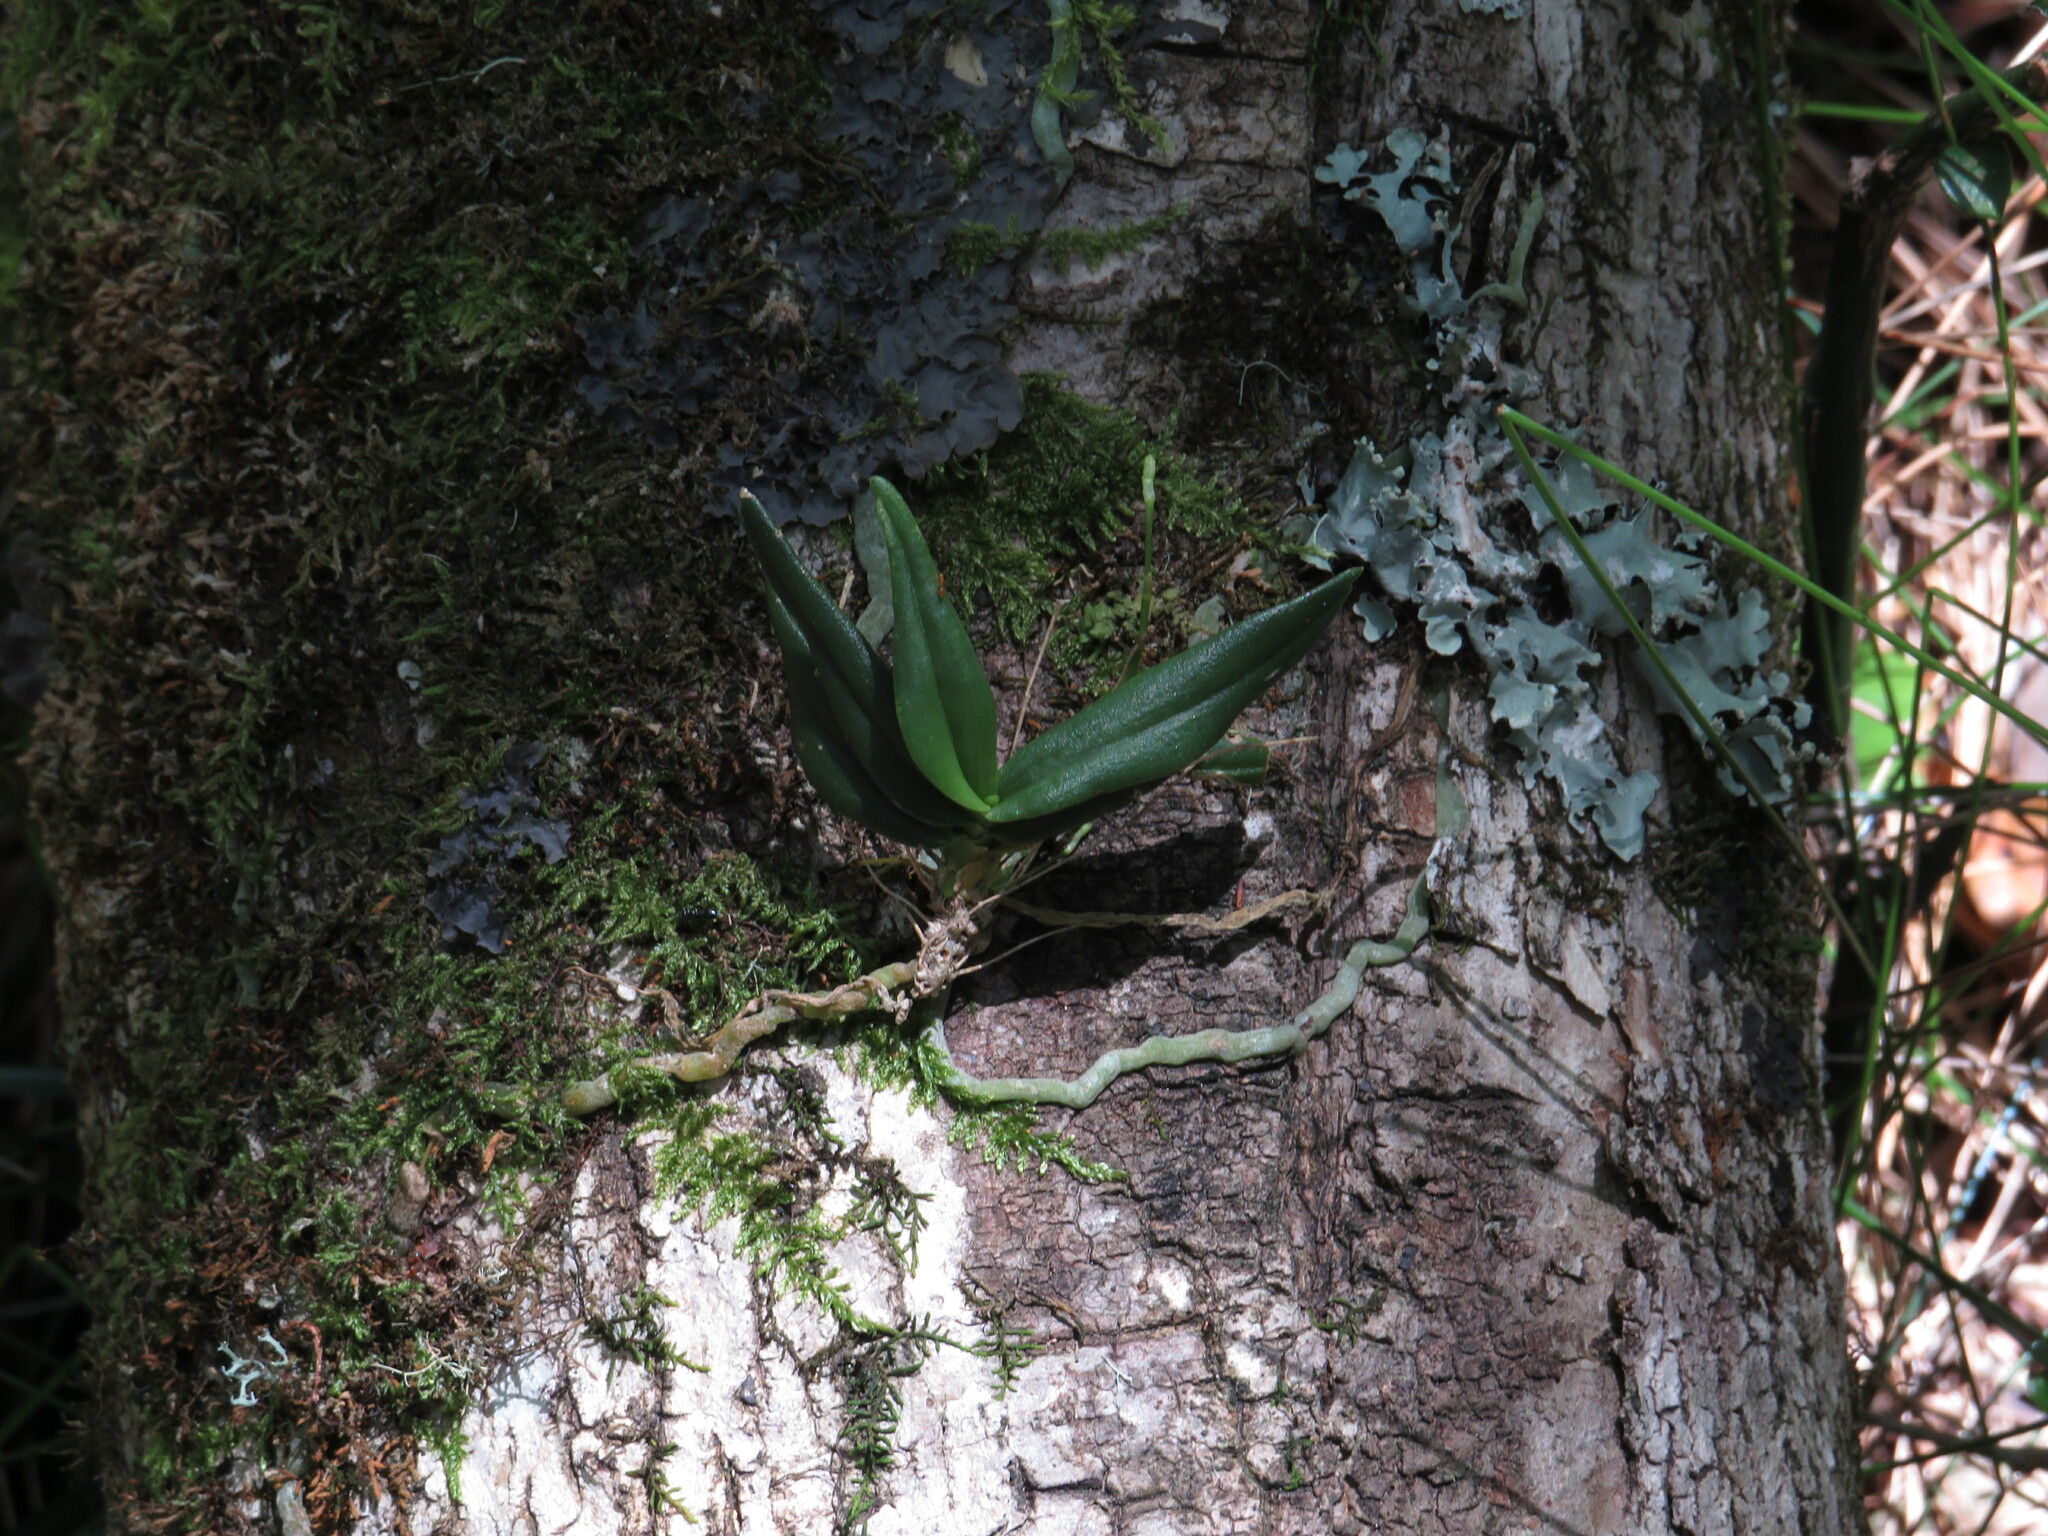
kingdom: Plantae
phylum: Tracheophyta
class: Liliopsida
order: Asparagales
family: Orchidaceae
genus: Angraecum
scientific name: Angraecum sacciferum
